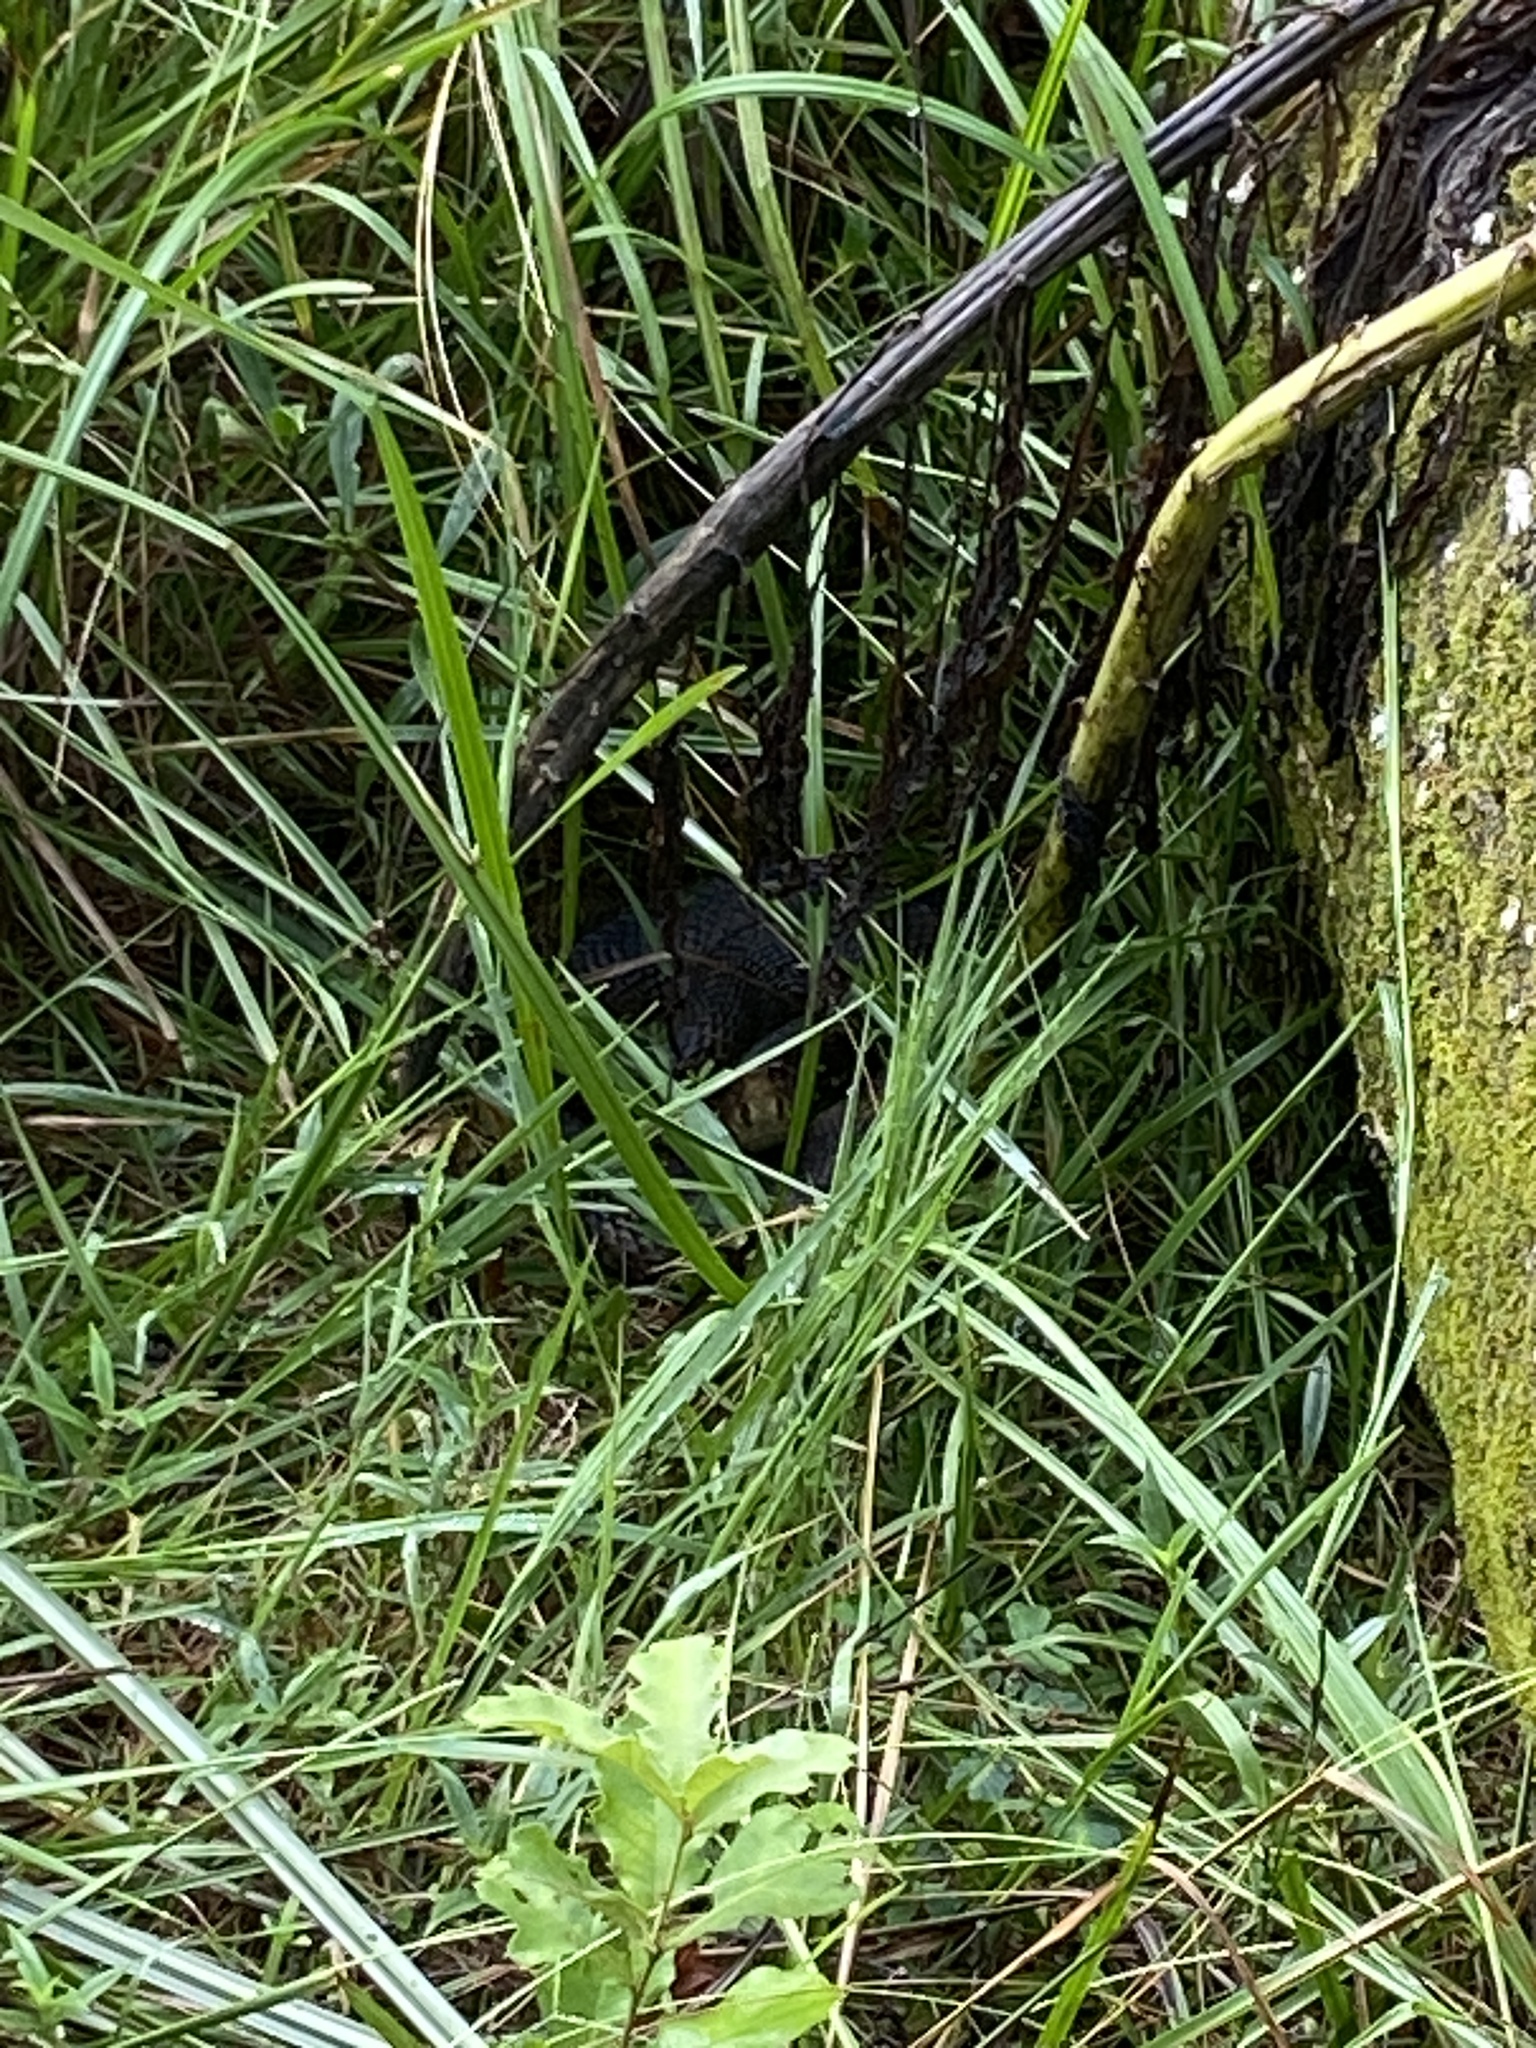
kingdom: Animalia
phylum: Chordata
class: Squamata
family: Viperidae
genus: Agkistrodon
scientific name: Agkistrodon piscivorus
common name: Cottonmouth
